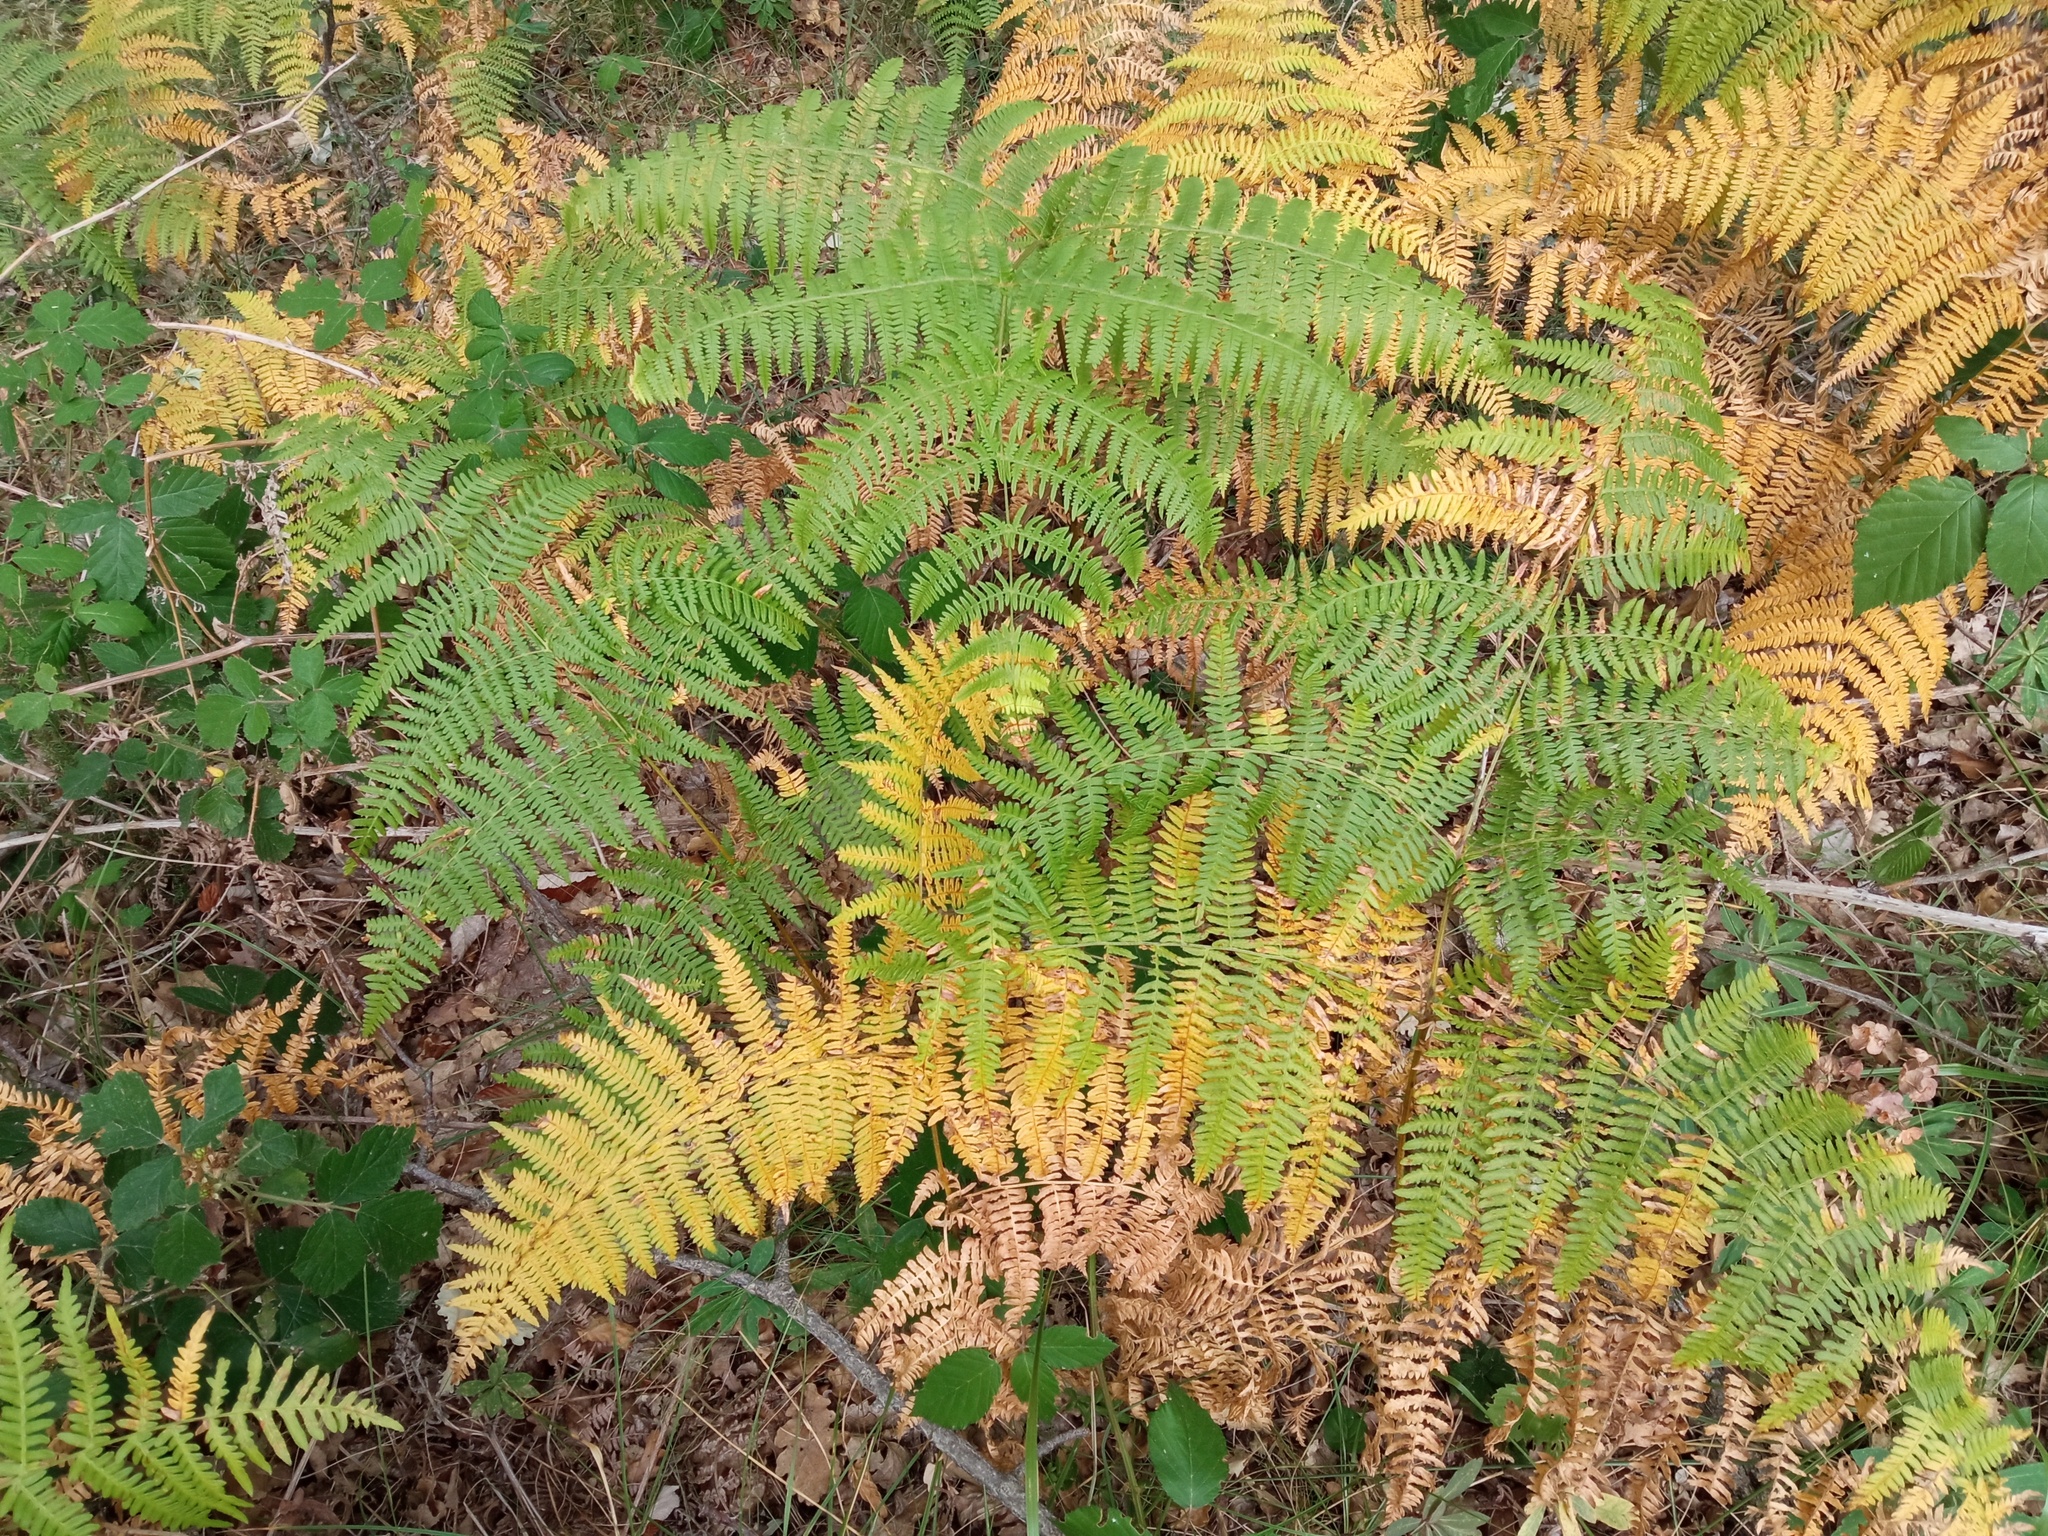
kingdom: Plantae
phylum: Tracheophyta
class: Polypodiopsida
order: Polypodiales
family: Dennstaedtiaceae
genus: Pteridium
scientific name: Pteridium aquilinum
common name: Bracken
